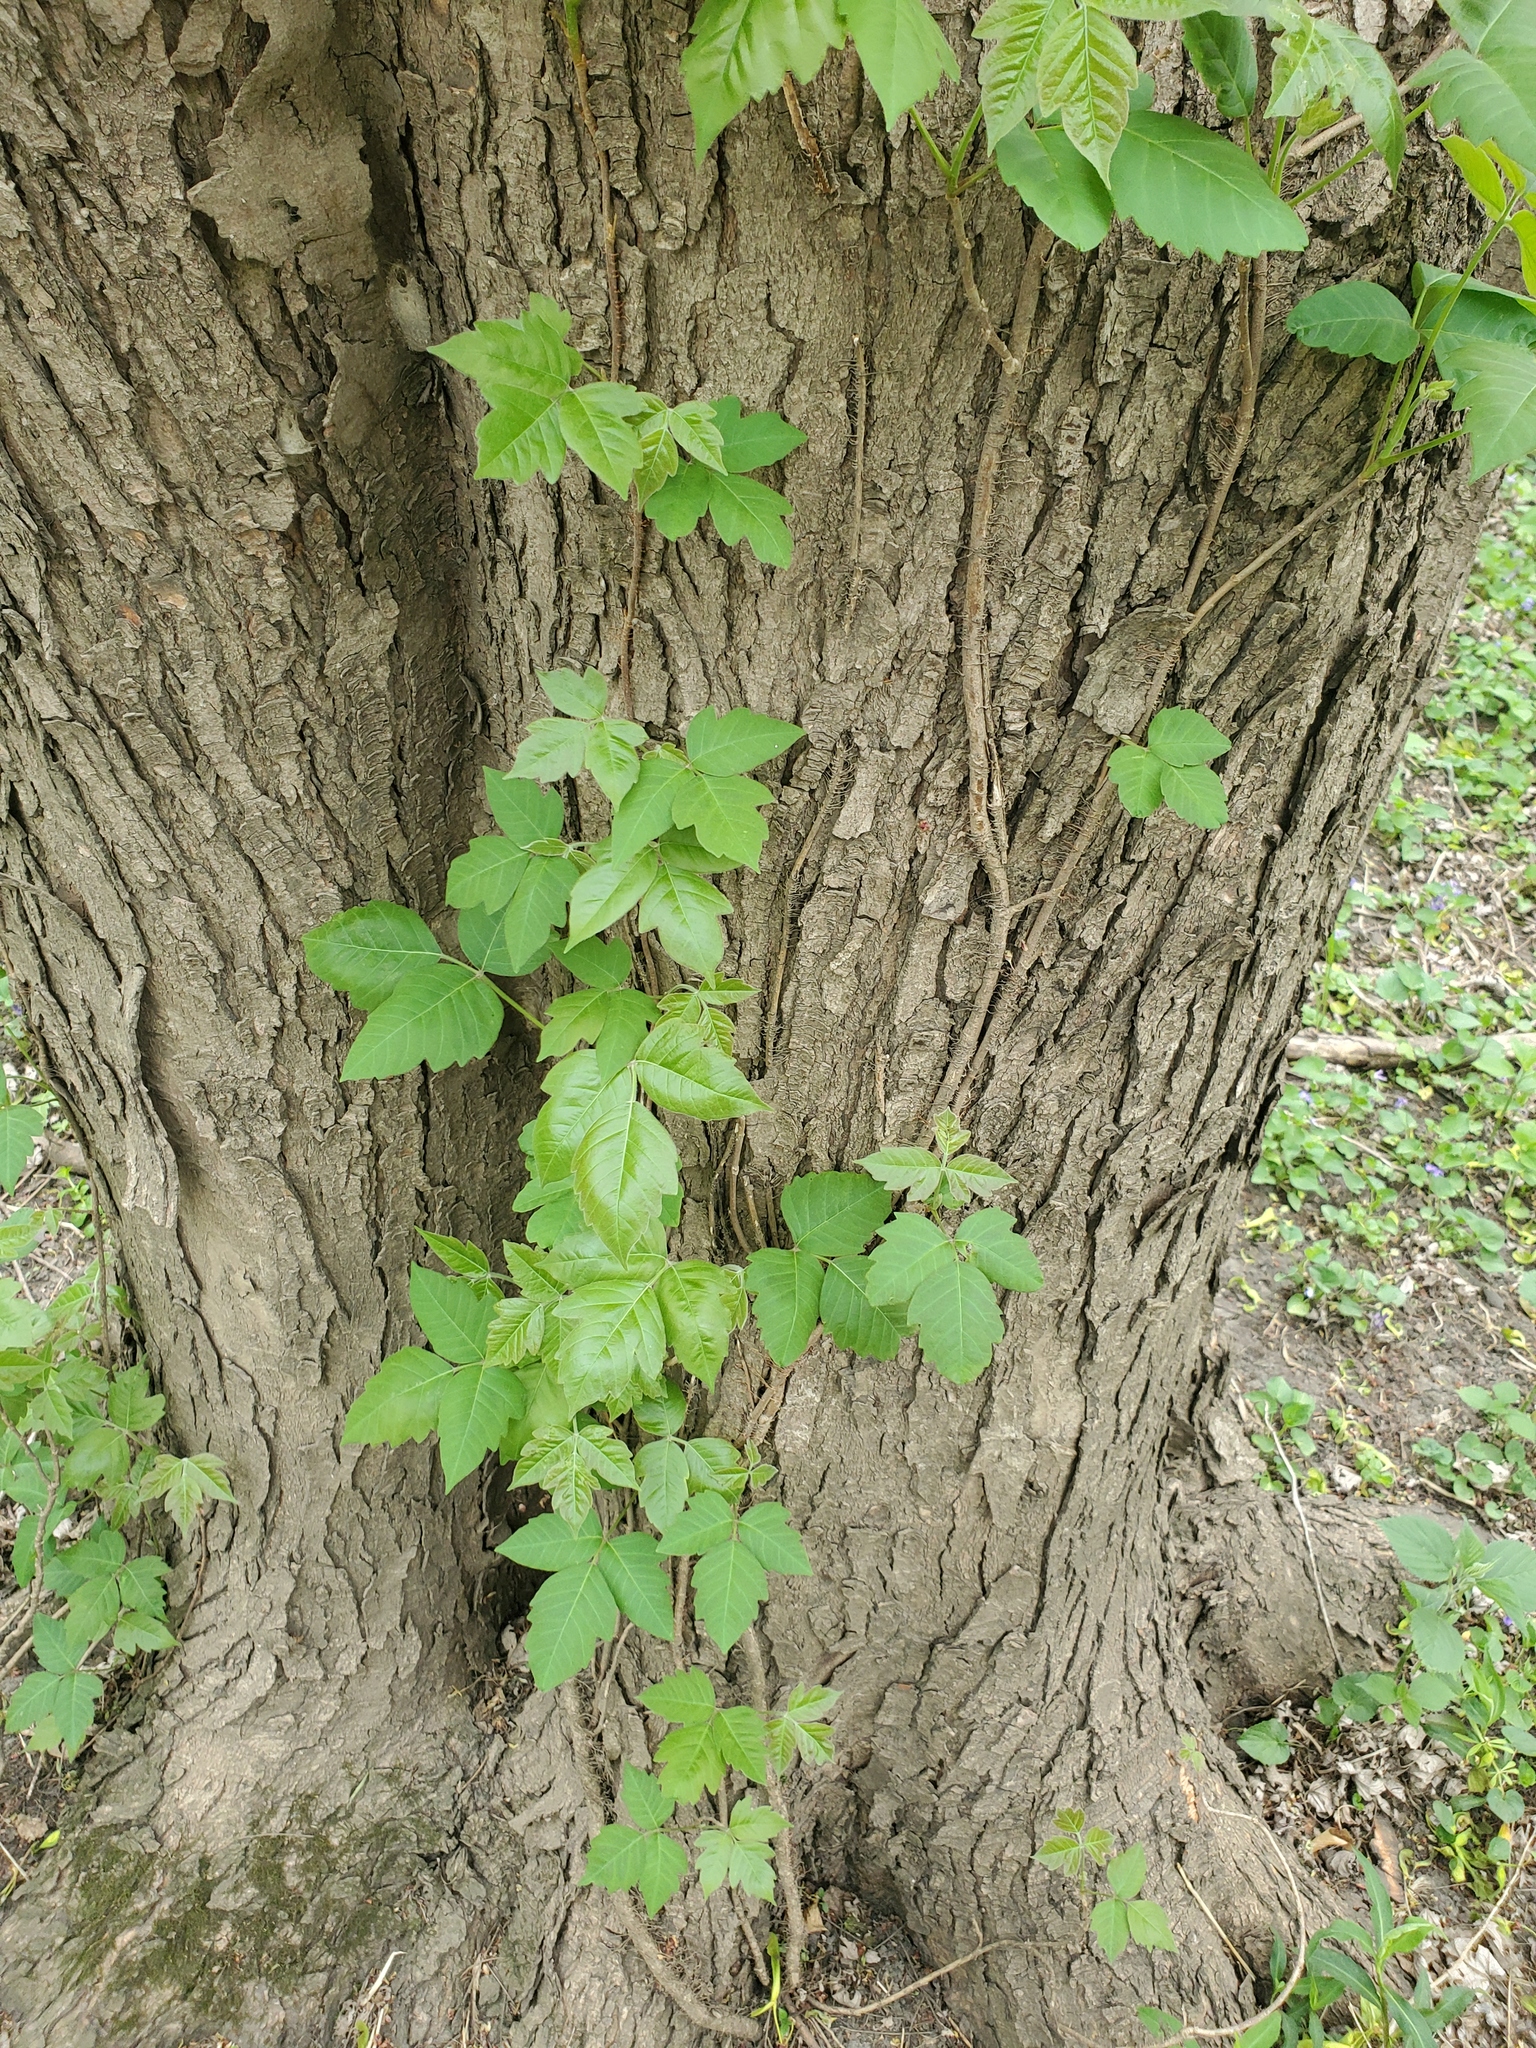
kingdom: Plantae
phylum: Tracheophyta
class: Magnoliopsida
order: Sapindales
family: Anacardiaceae
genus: Toxicodendron
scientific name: Toxicodendron radicans
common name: Poison ivy
